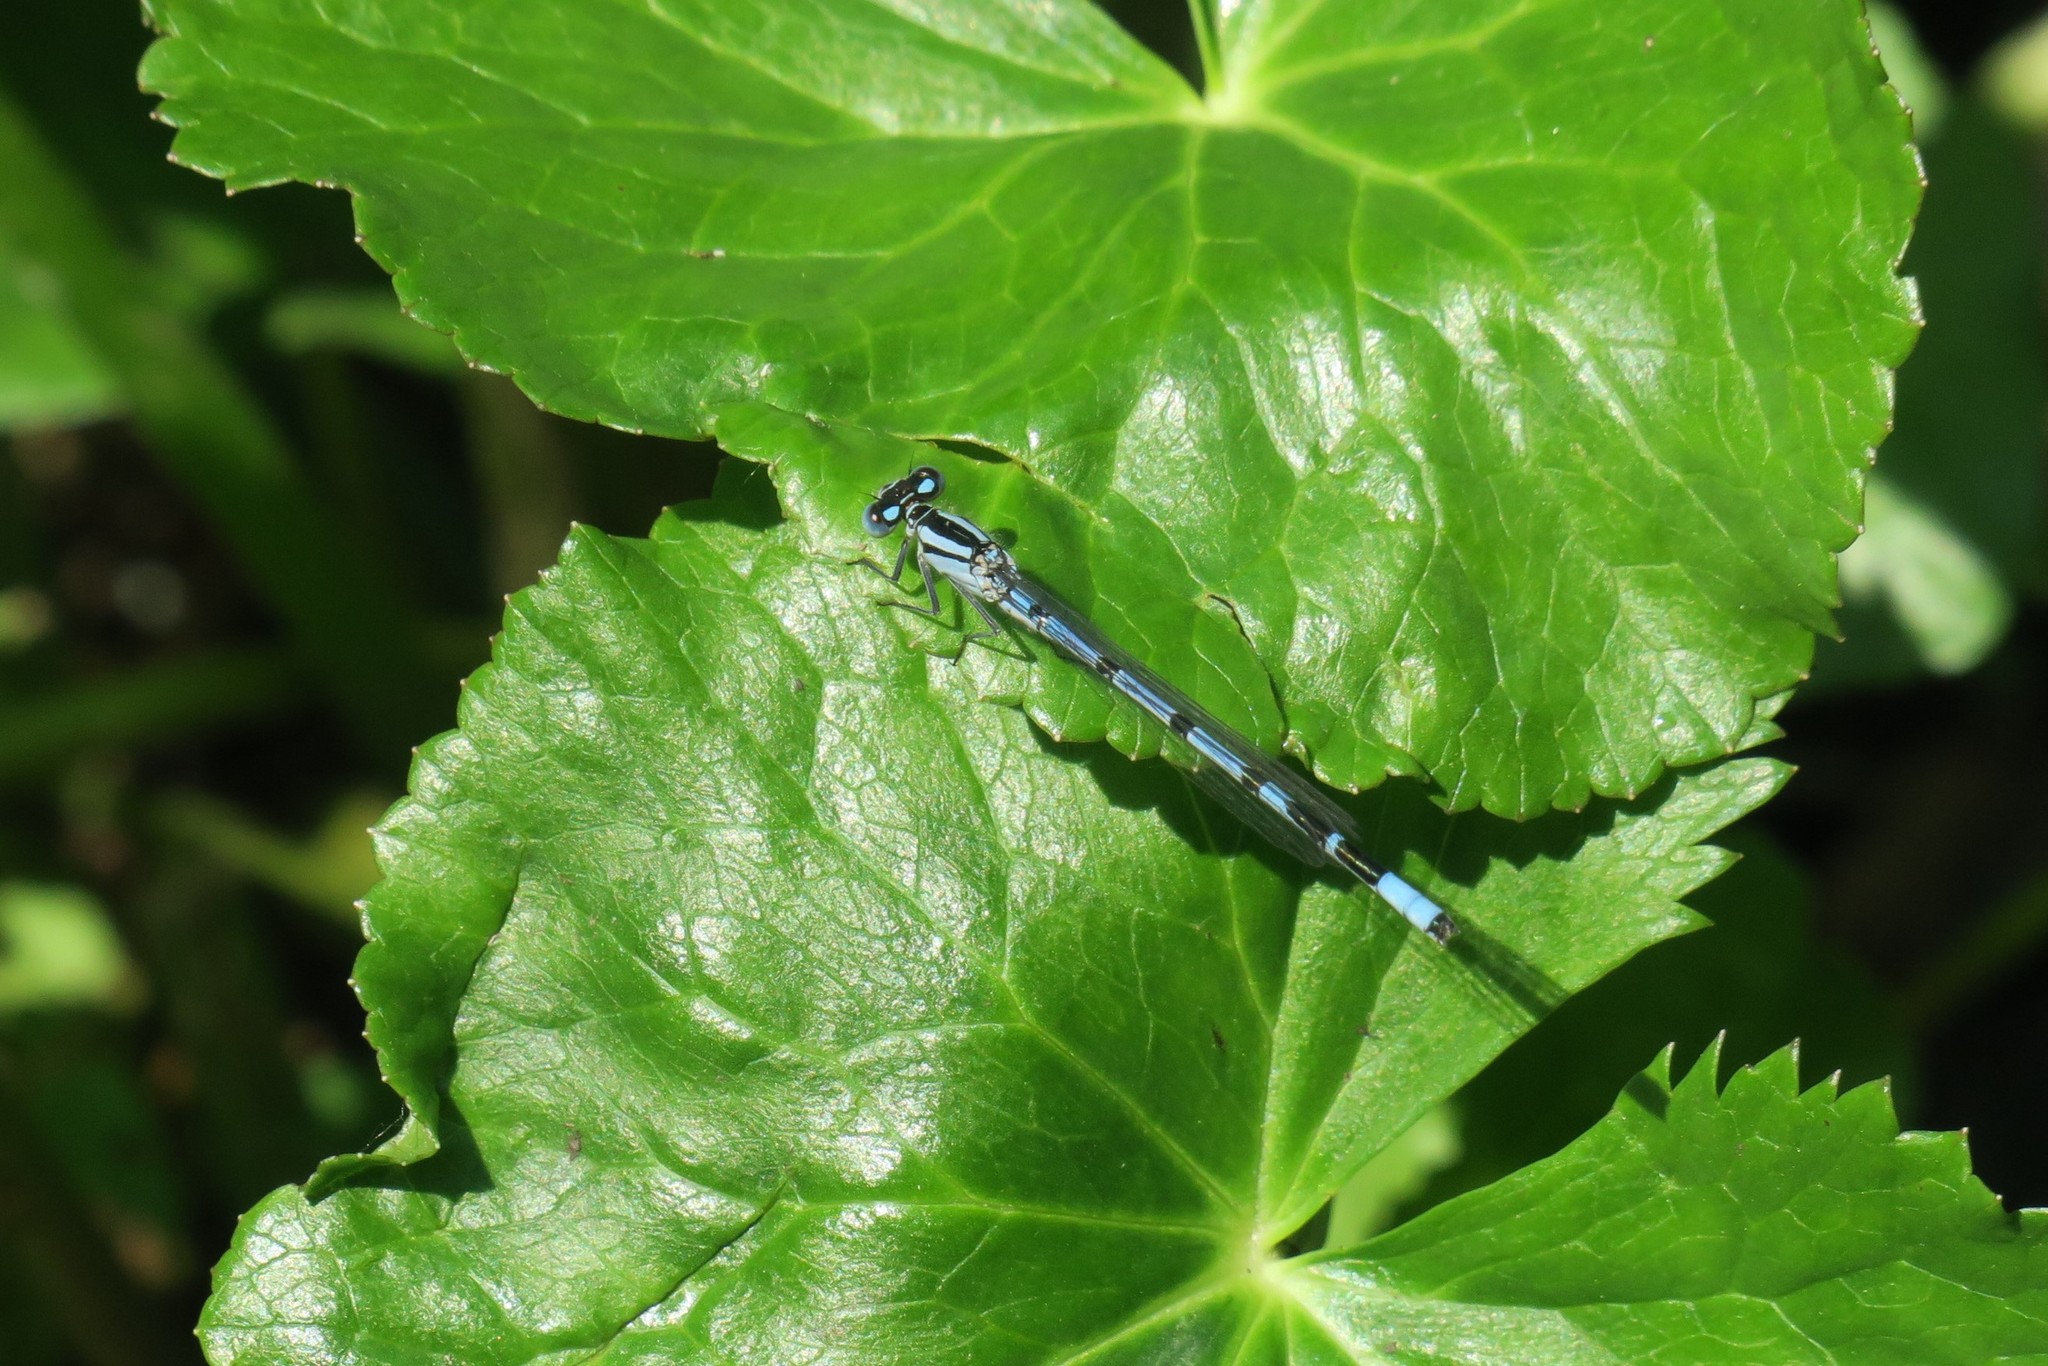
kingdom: Animalia
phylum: Arthropoda
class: Insecta
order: Odonata
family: Coenagrionidae
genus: Enallagma
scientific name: Enallagma cyathigerum
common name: Common blue damselfly
